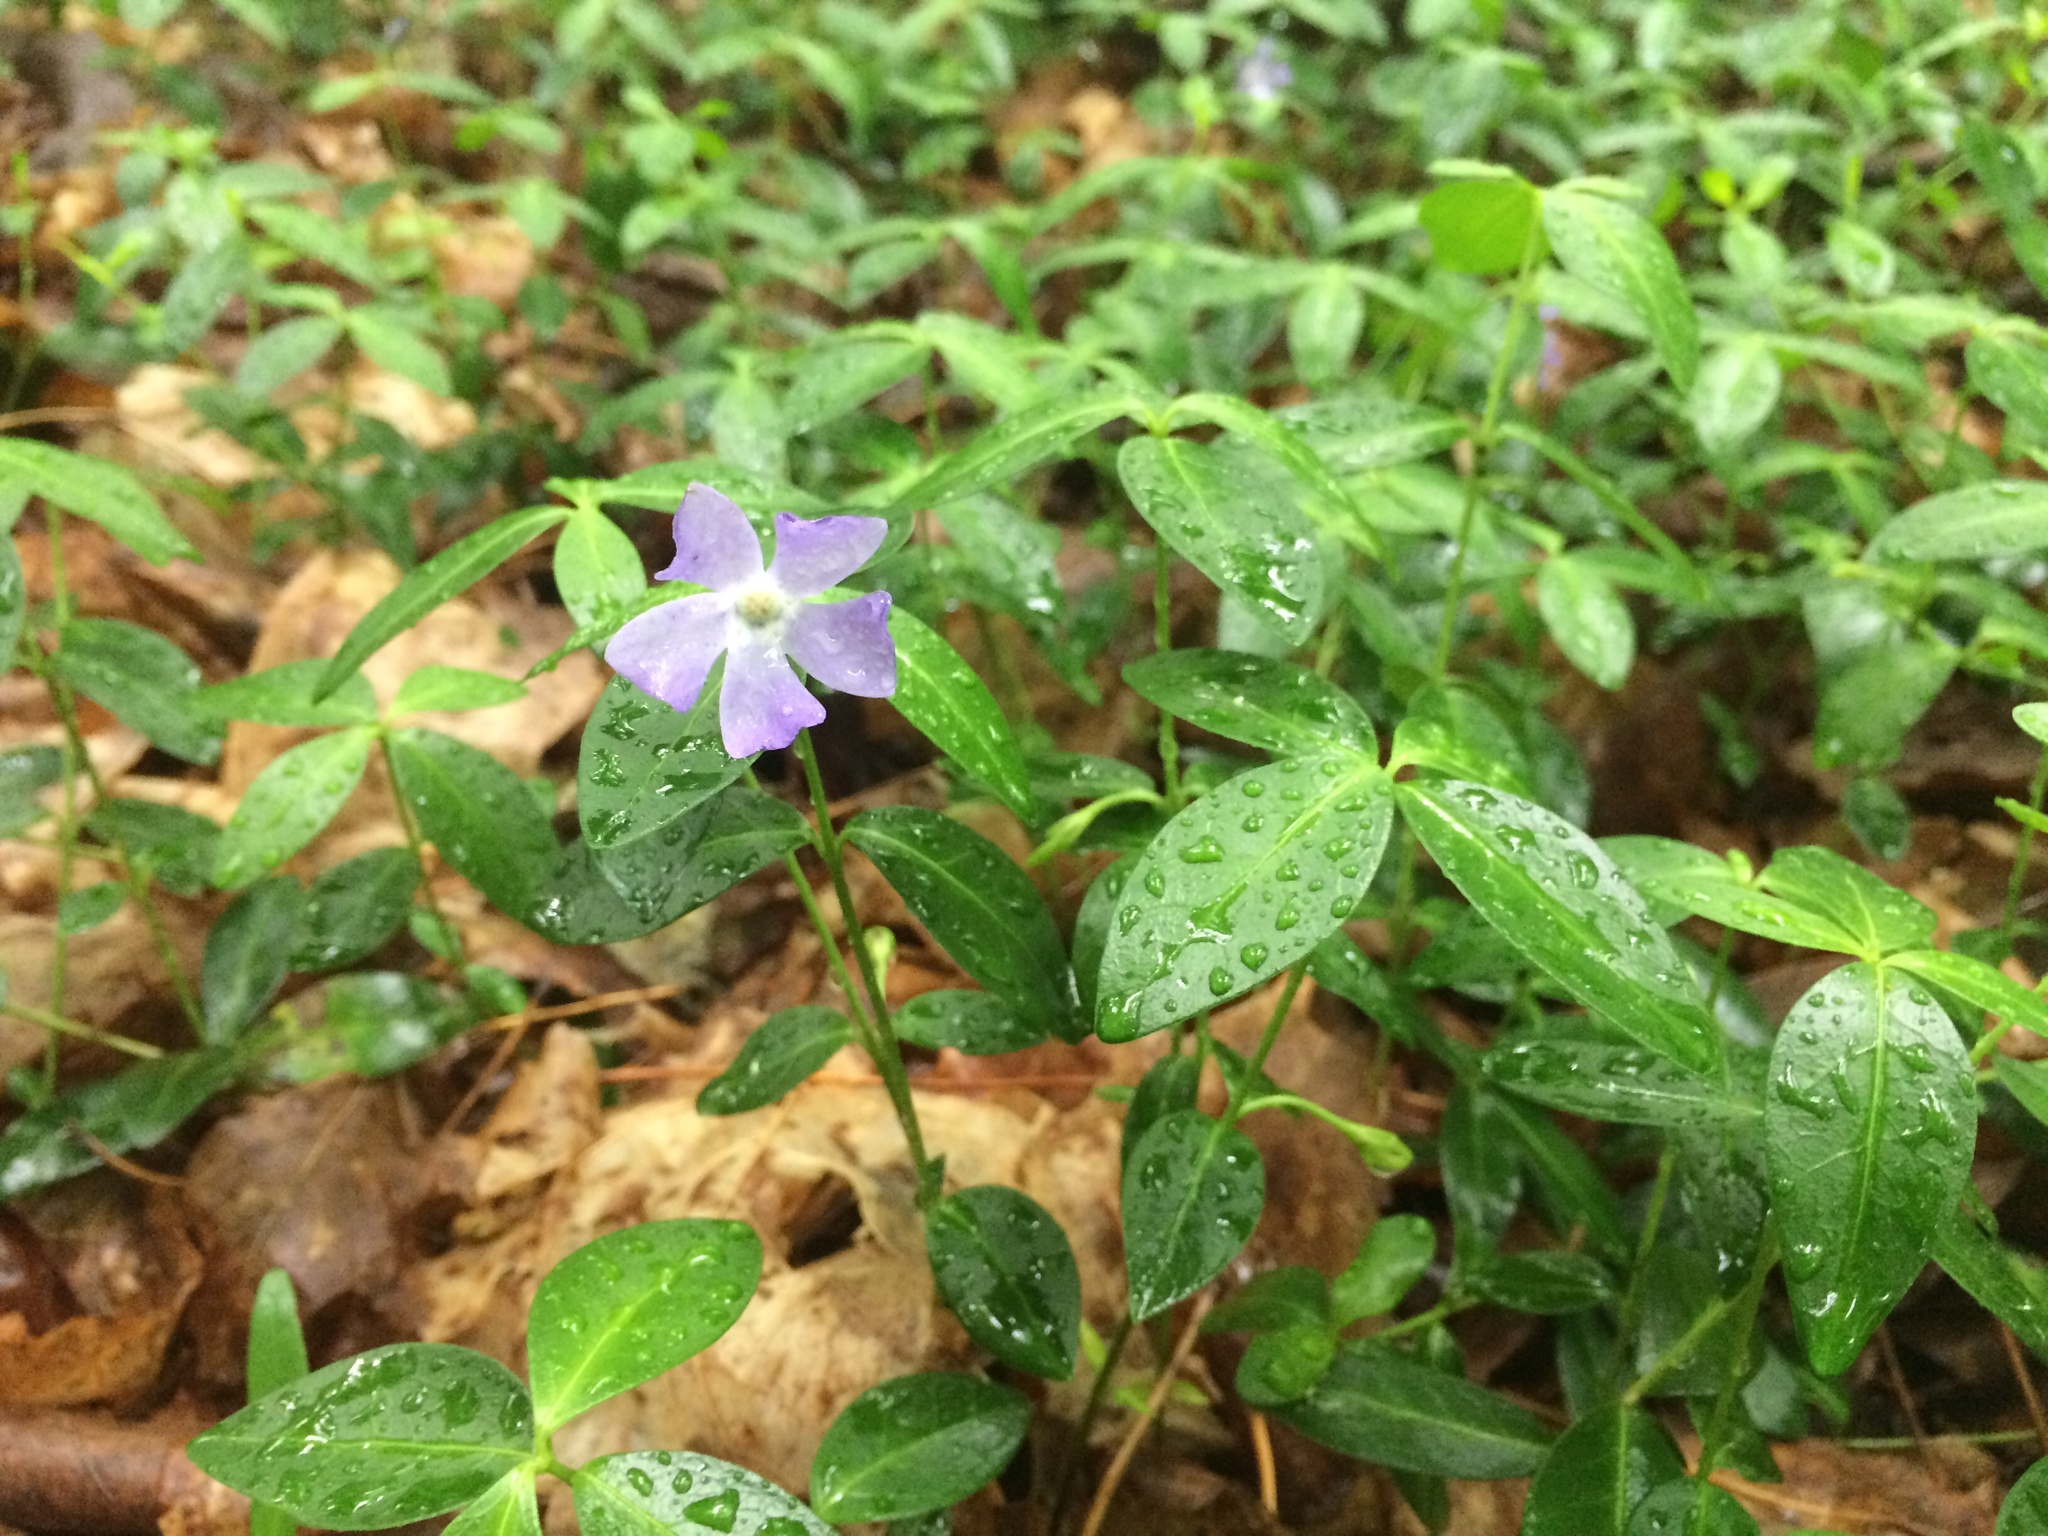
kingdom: Plantae
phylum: Tracheophyta
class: Magnoliopsida
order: Gentianales
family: Apocynaceae
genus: Vinca
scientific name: Vinca minor
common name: Lesser periwinkle
